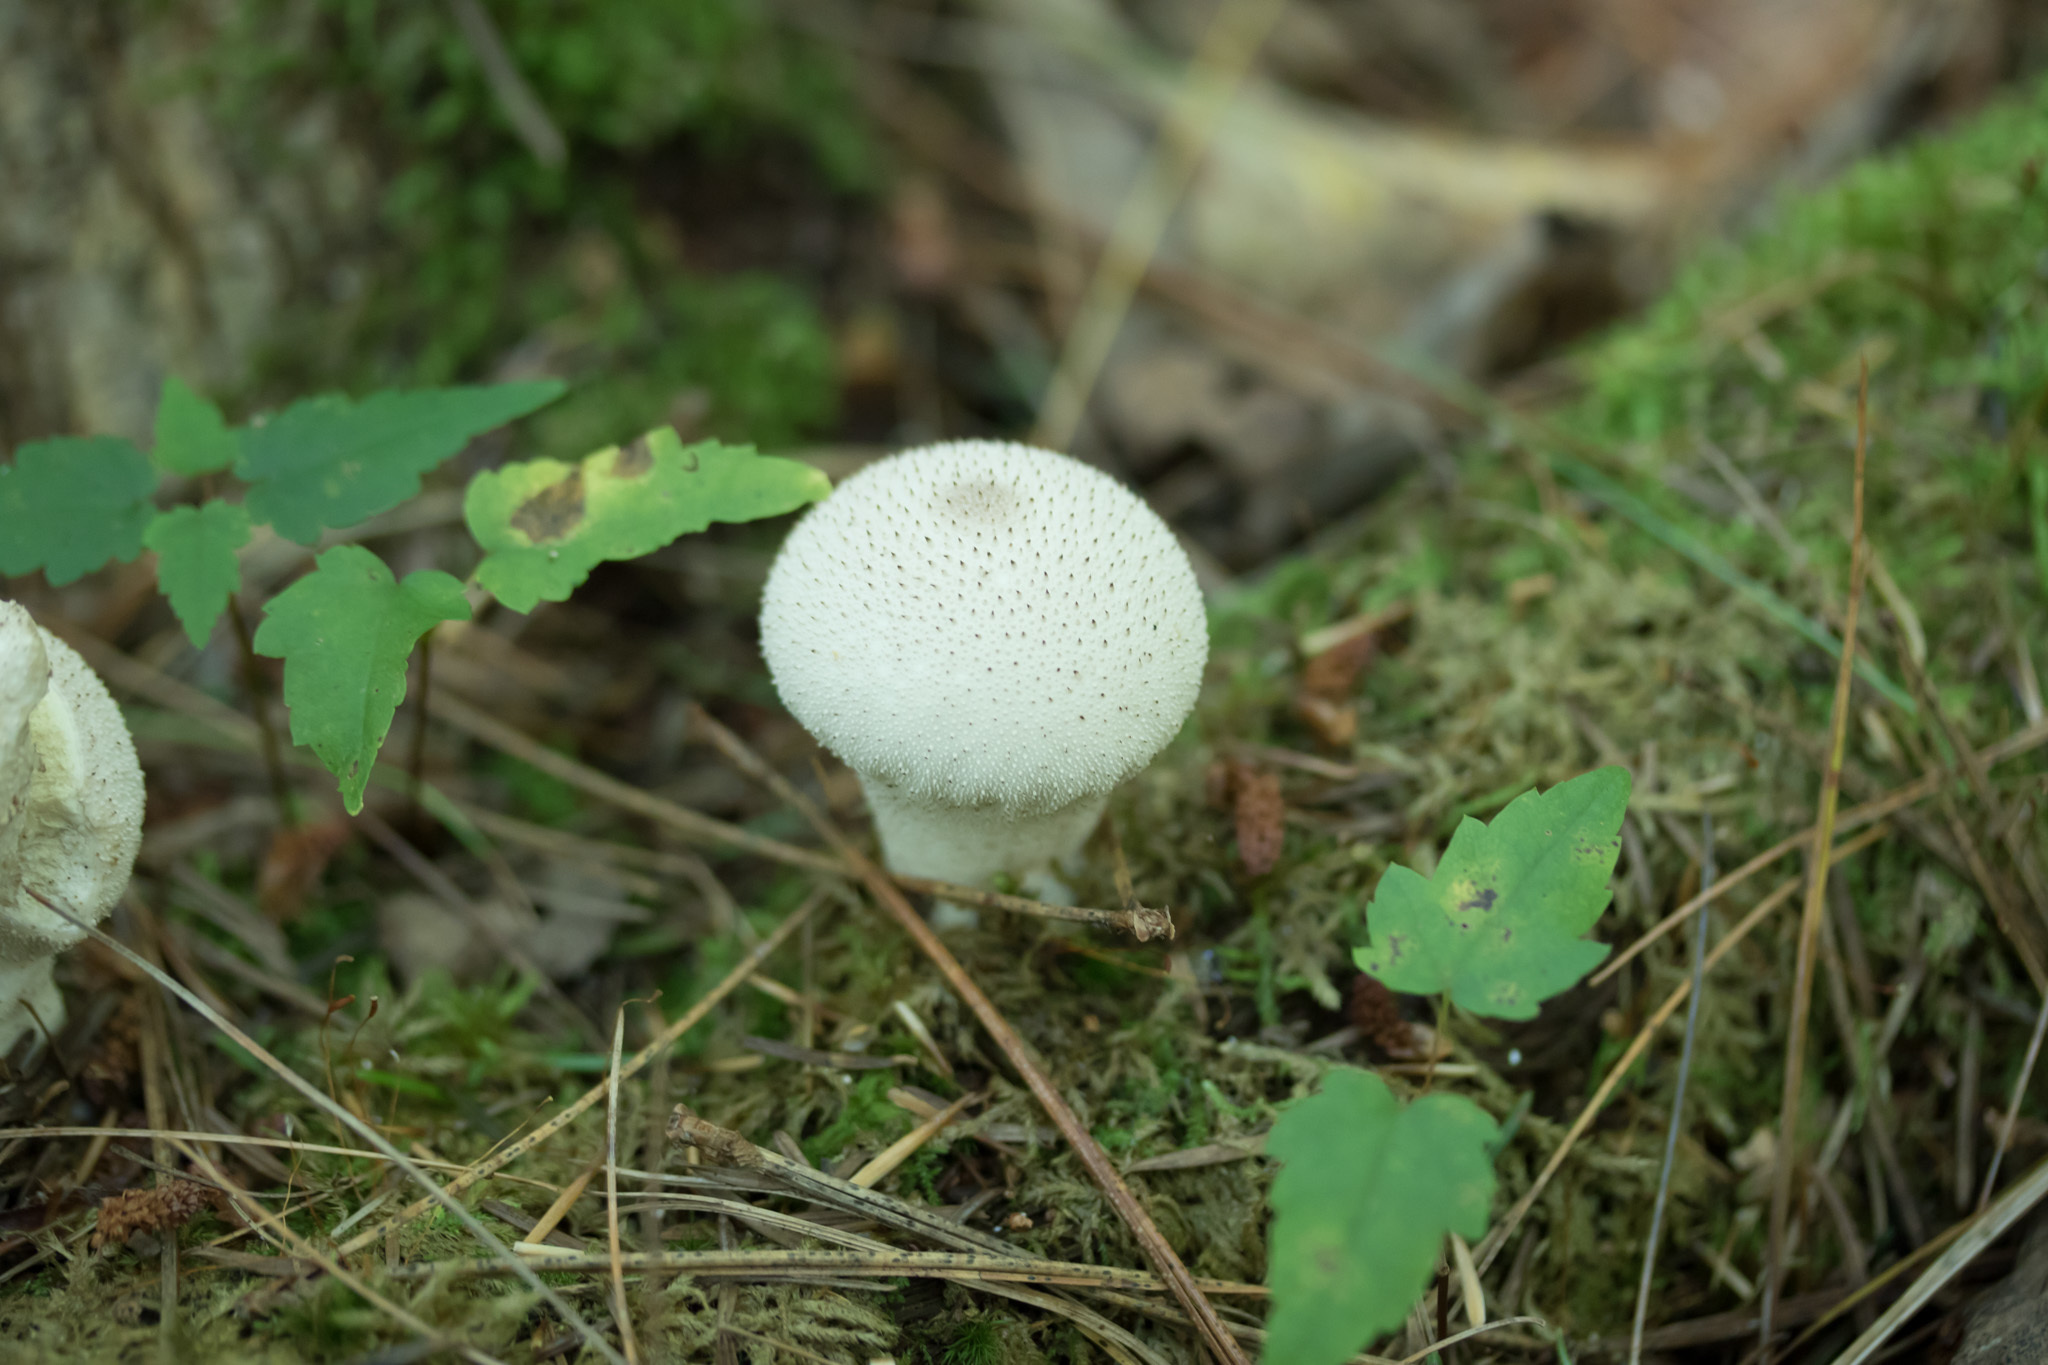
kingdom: Fungi
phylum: Basidiomycota
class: Agaricomycetes
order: Agaricales
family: Lycoperdaceae
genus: Lycoperdon
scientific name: Lycoperdon perlatum
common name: Common puffball
